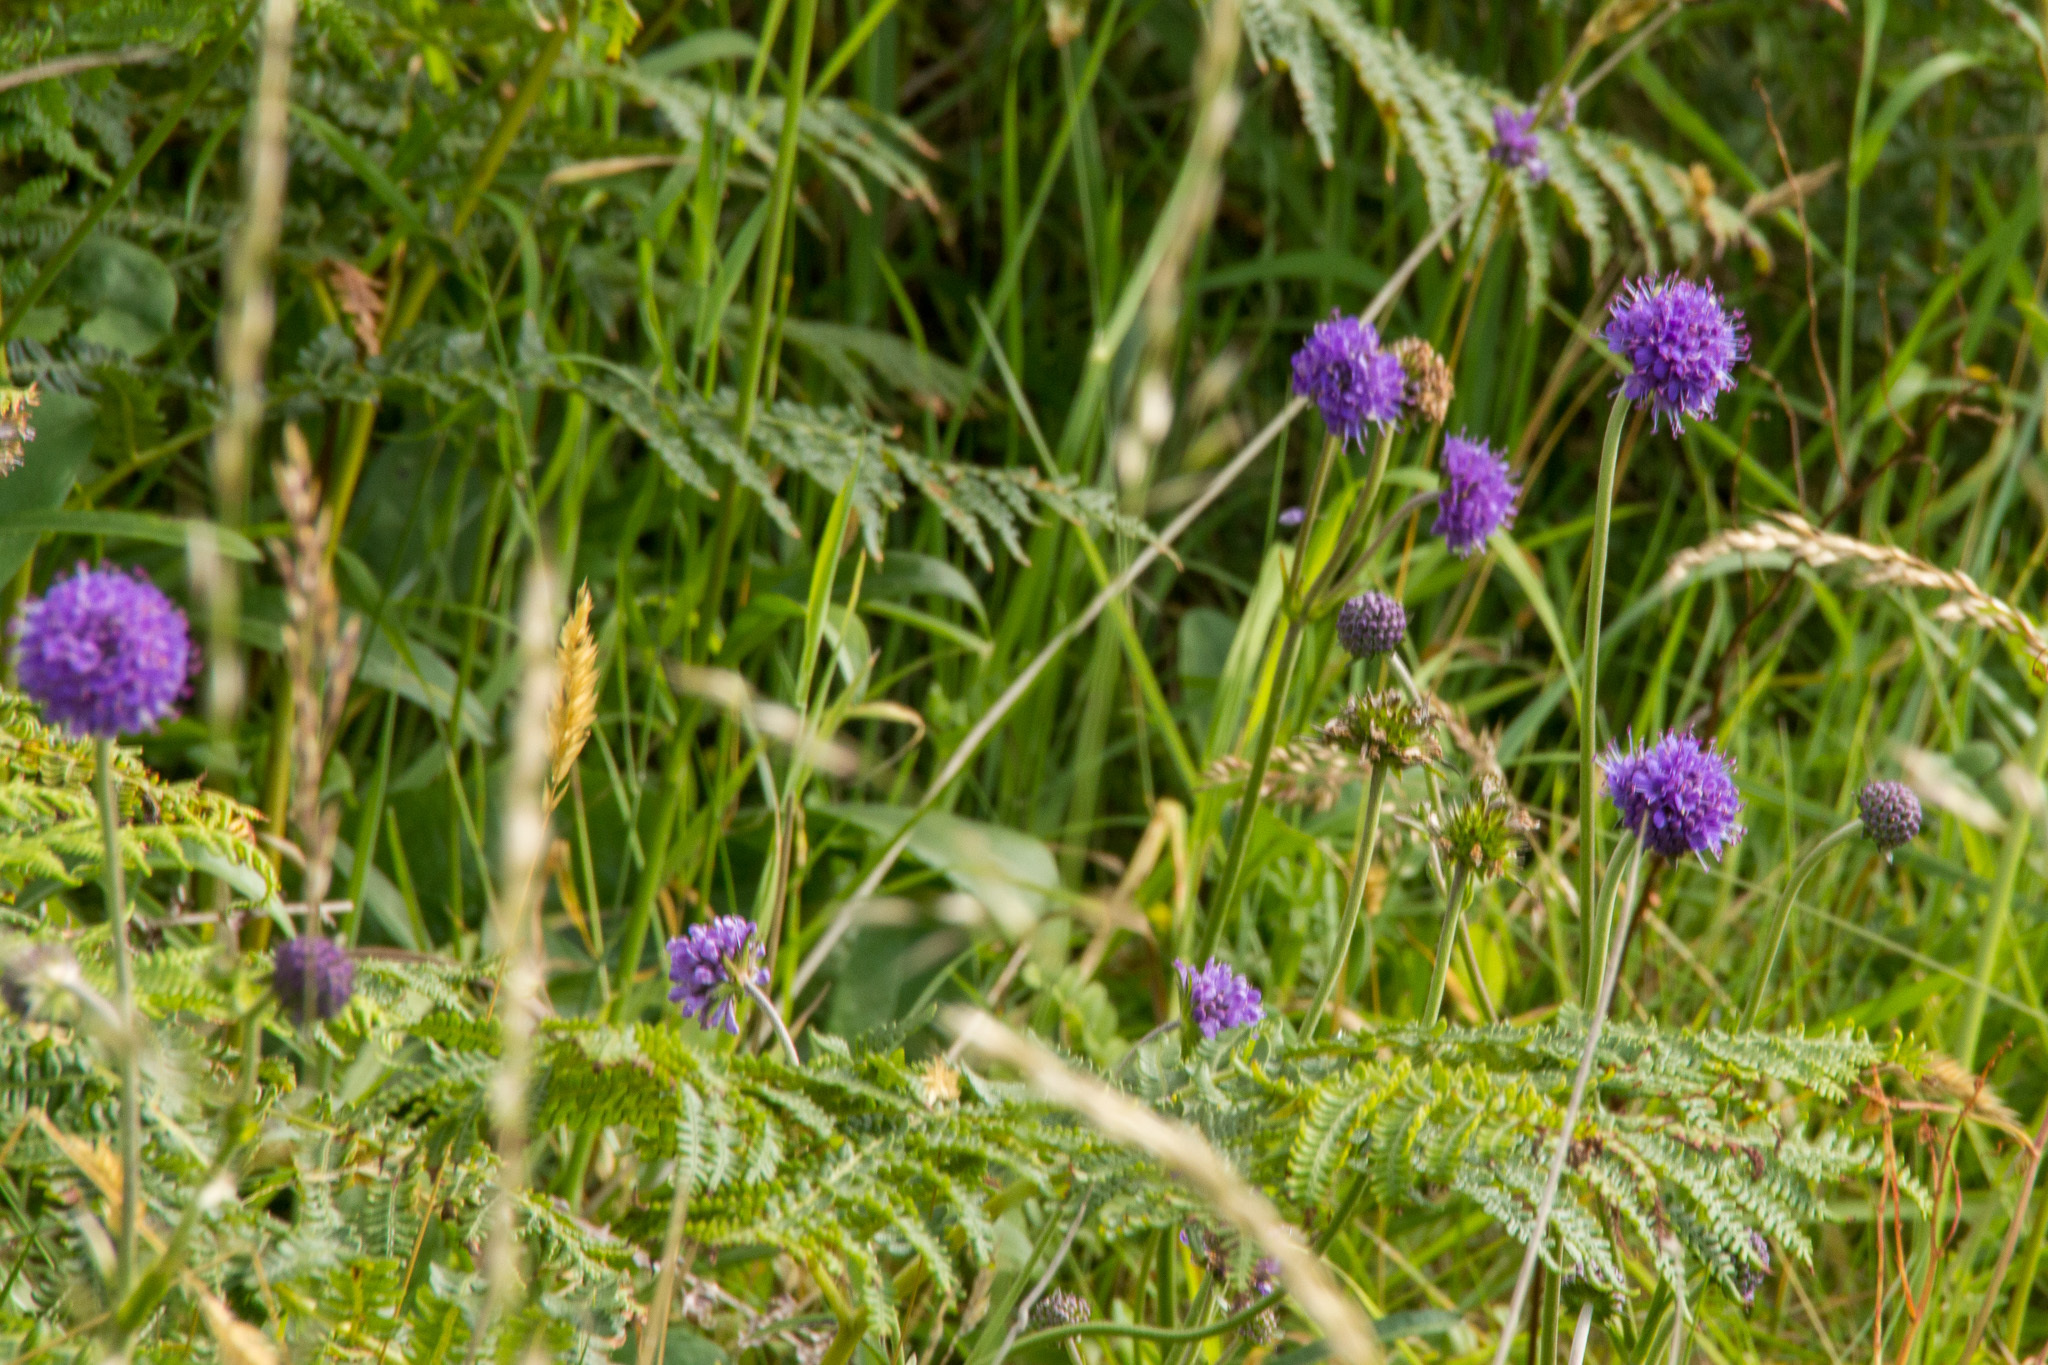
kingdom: Plantae
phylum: Tracheophyta
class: Magnoliopsida
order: Dipsacales
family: Caprifoliaceae
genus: Succisa
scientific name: Succisa pratensis
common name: Devil's-bit
